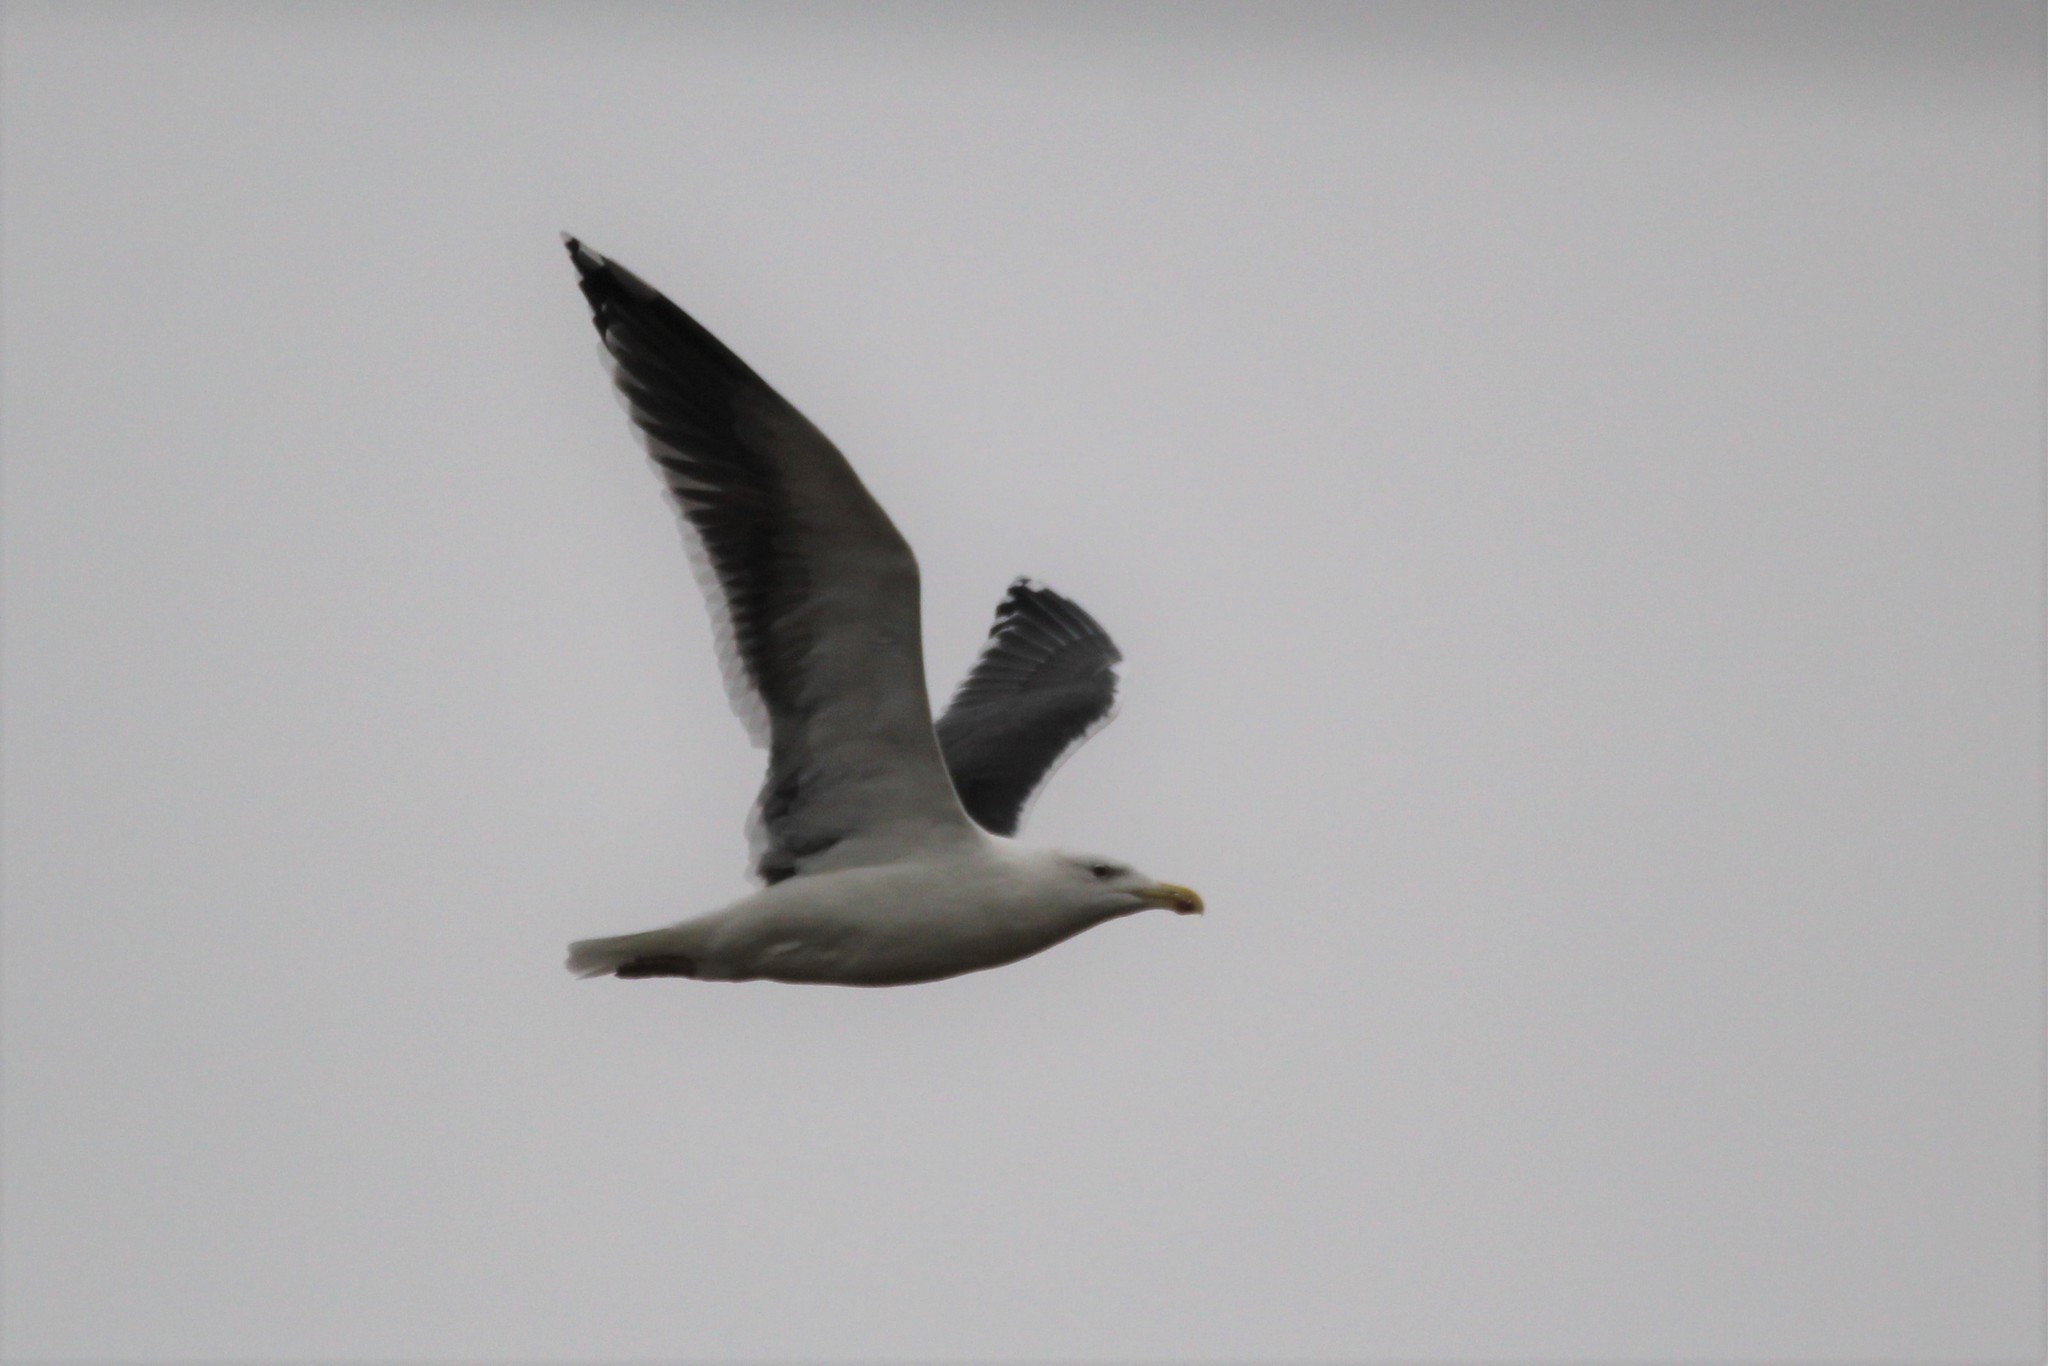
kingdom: Animalia
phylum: Chordata
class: Aves
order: Charadriiformes
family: Laridae
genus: Larus
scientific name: Larus marinus
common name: Great black-backed gull
